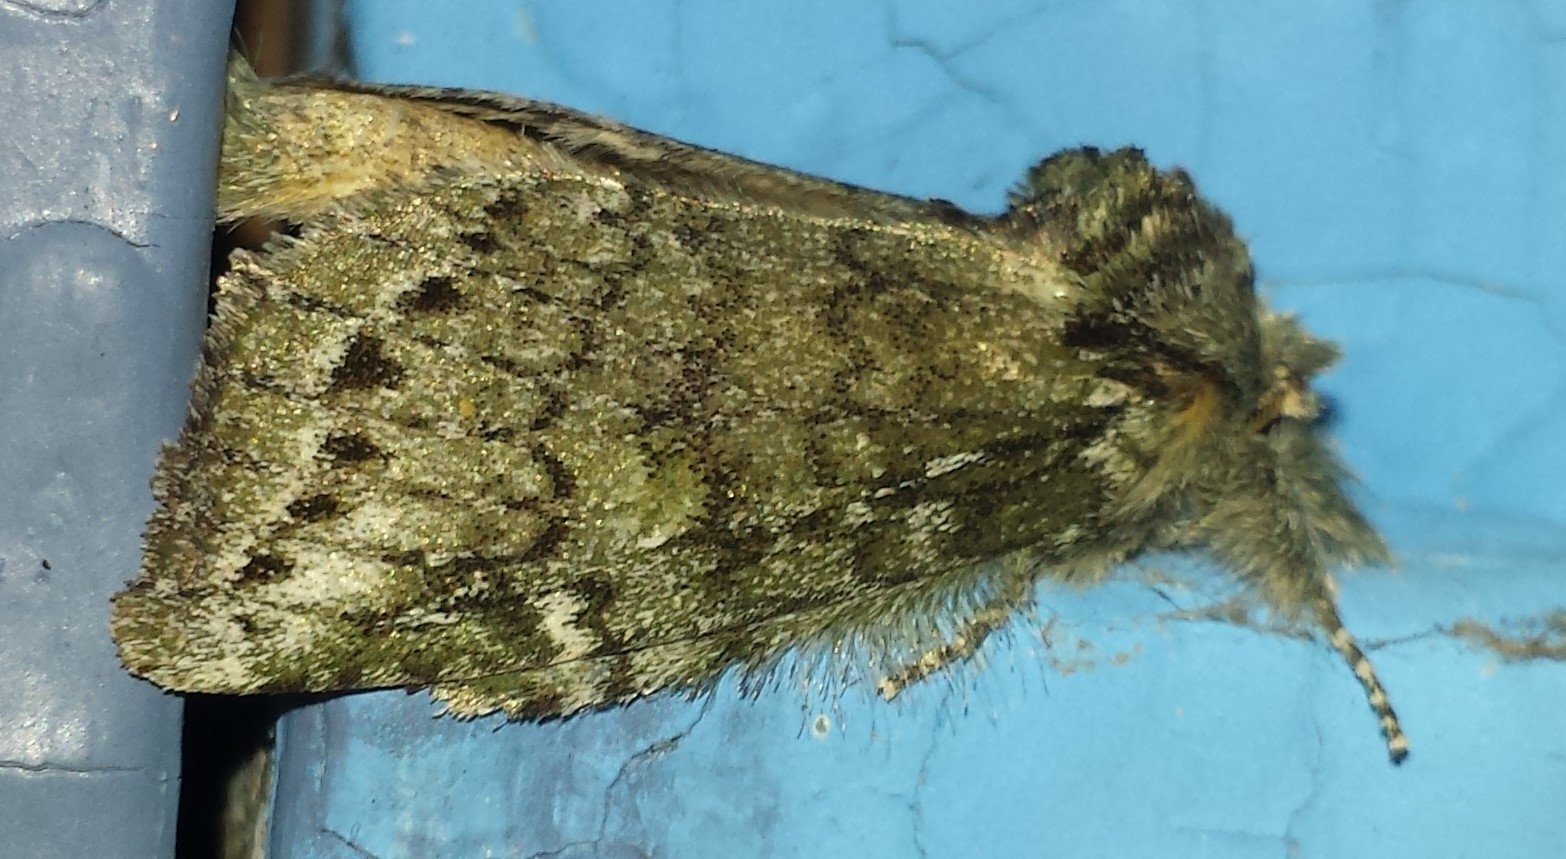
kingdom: Animalia
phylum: Arthropoda
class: Insecta
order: Lepidoptera
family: Notodontidae
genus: Disphragis
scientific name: Disphragis Cecrita guttivitta
